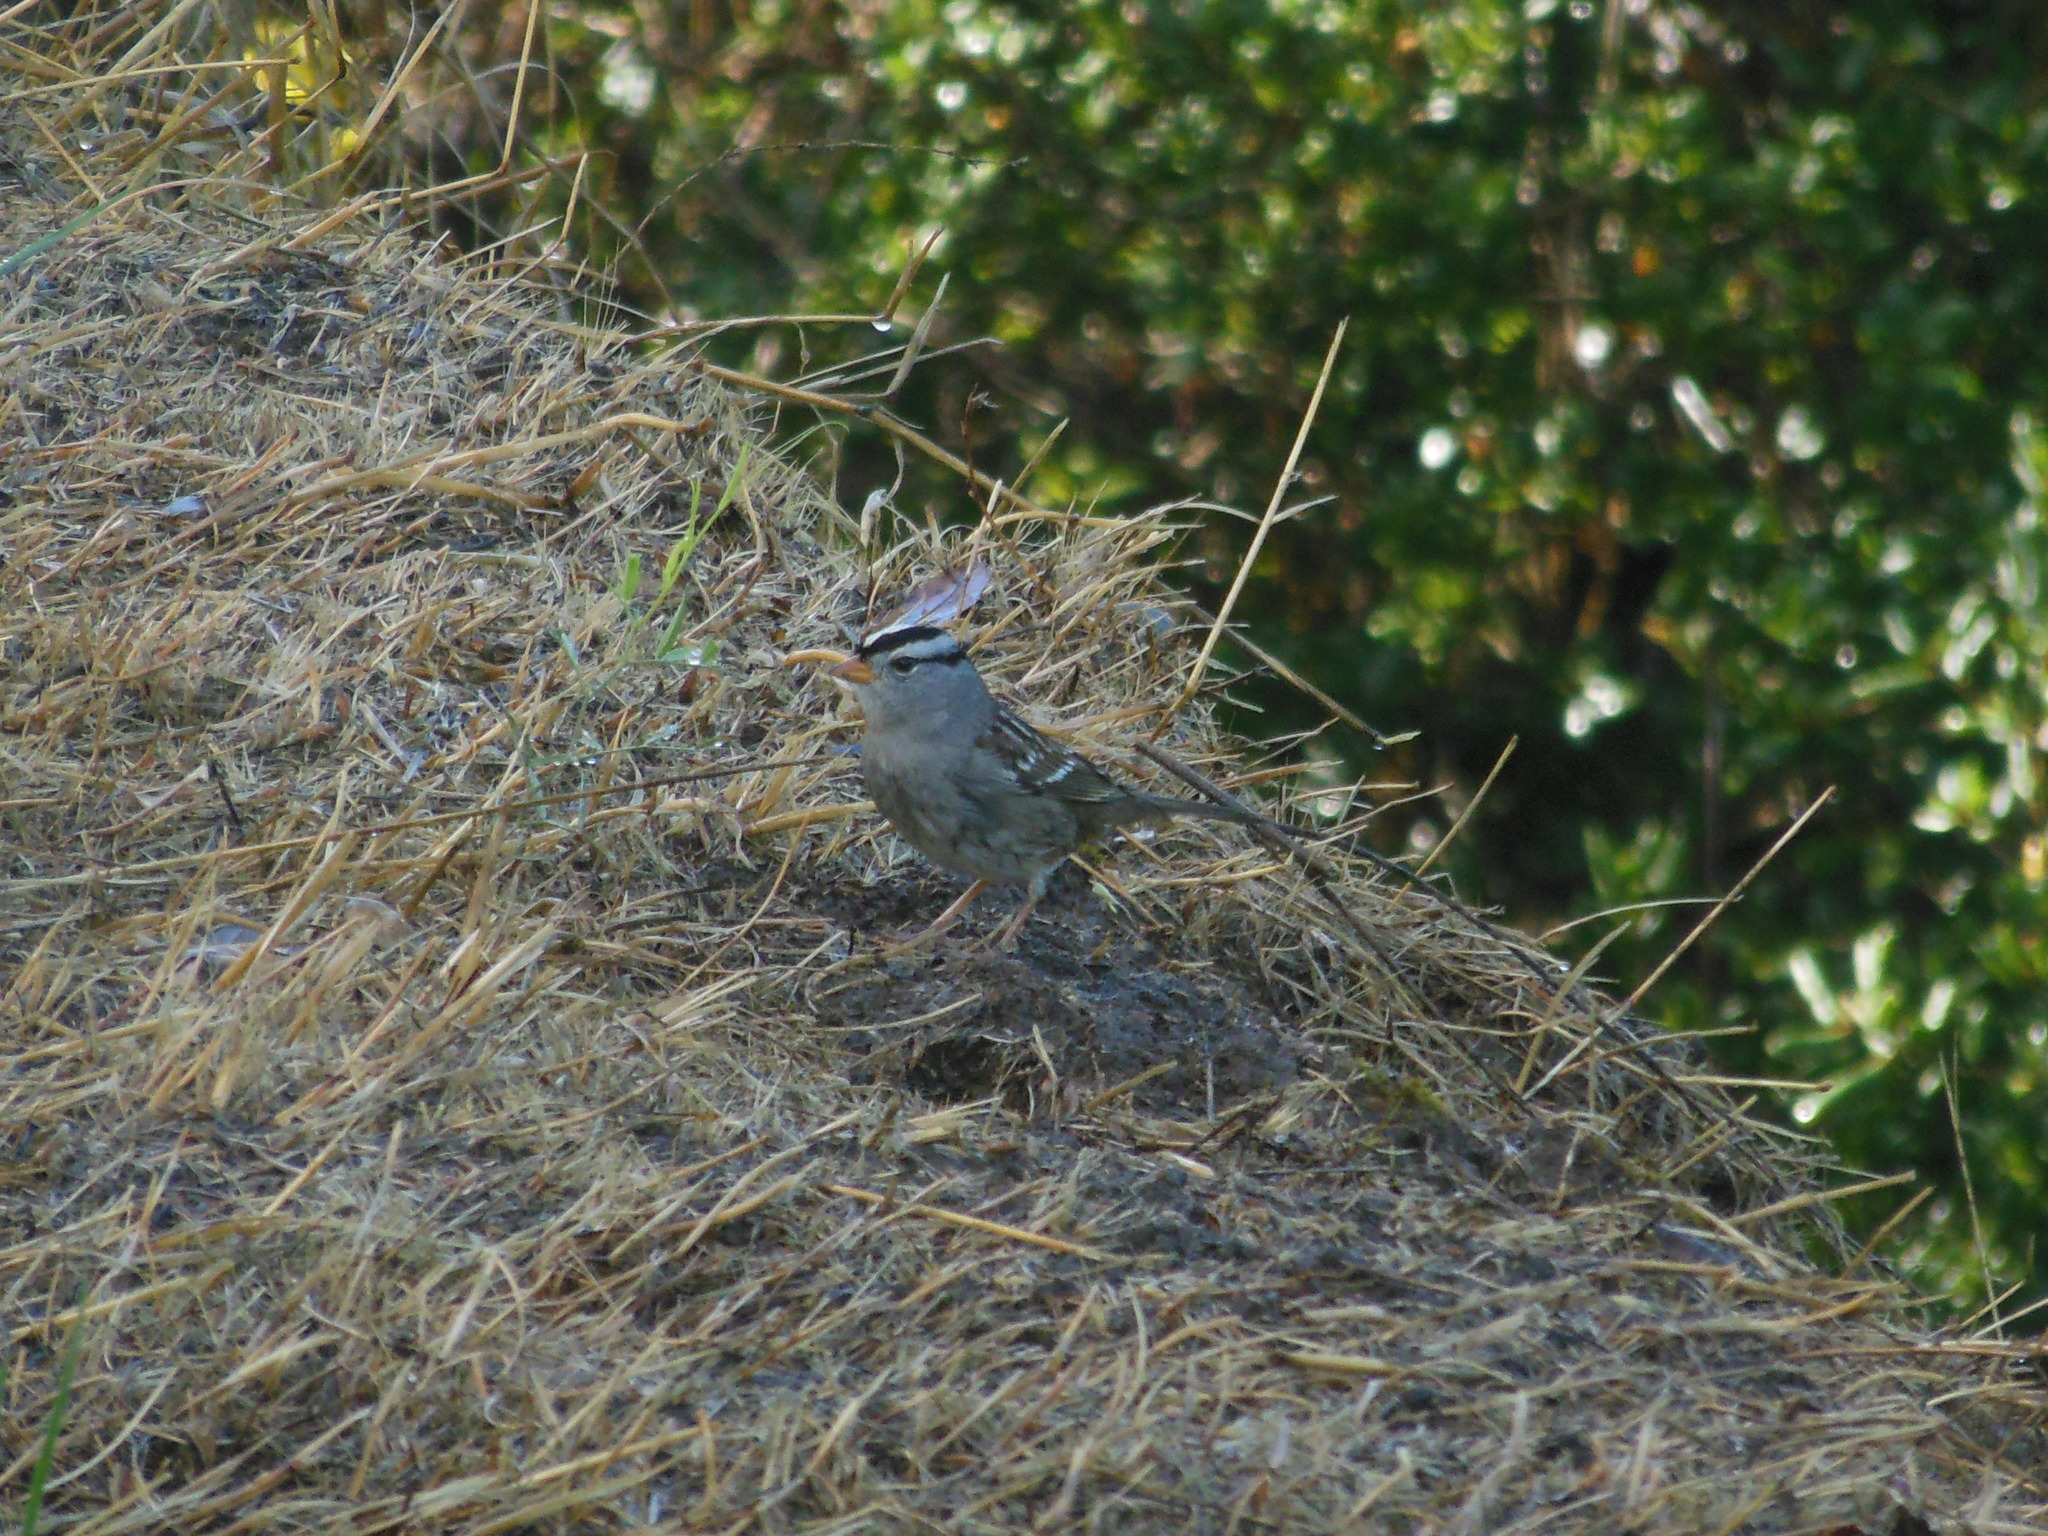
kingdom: Animalia
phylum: Chordata
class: Aves
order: Passeriformes
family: Passerellidae
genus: Zonotrichia
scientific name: Zonotrichia leucophrys
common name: White-crowned sparrow
